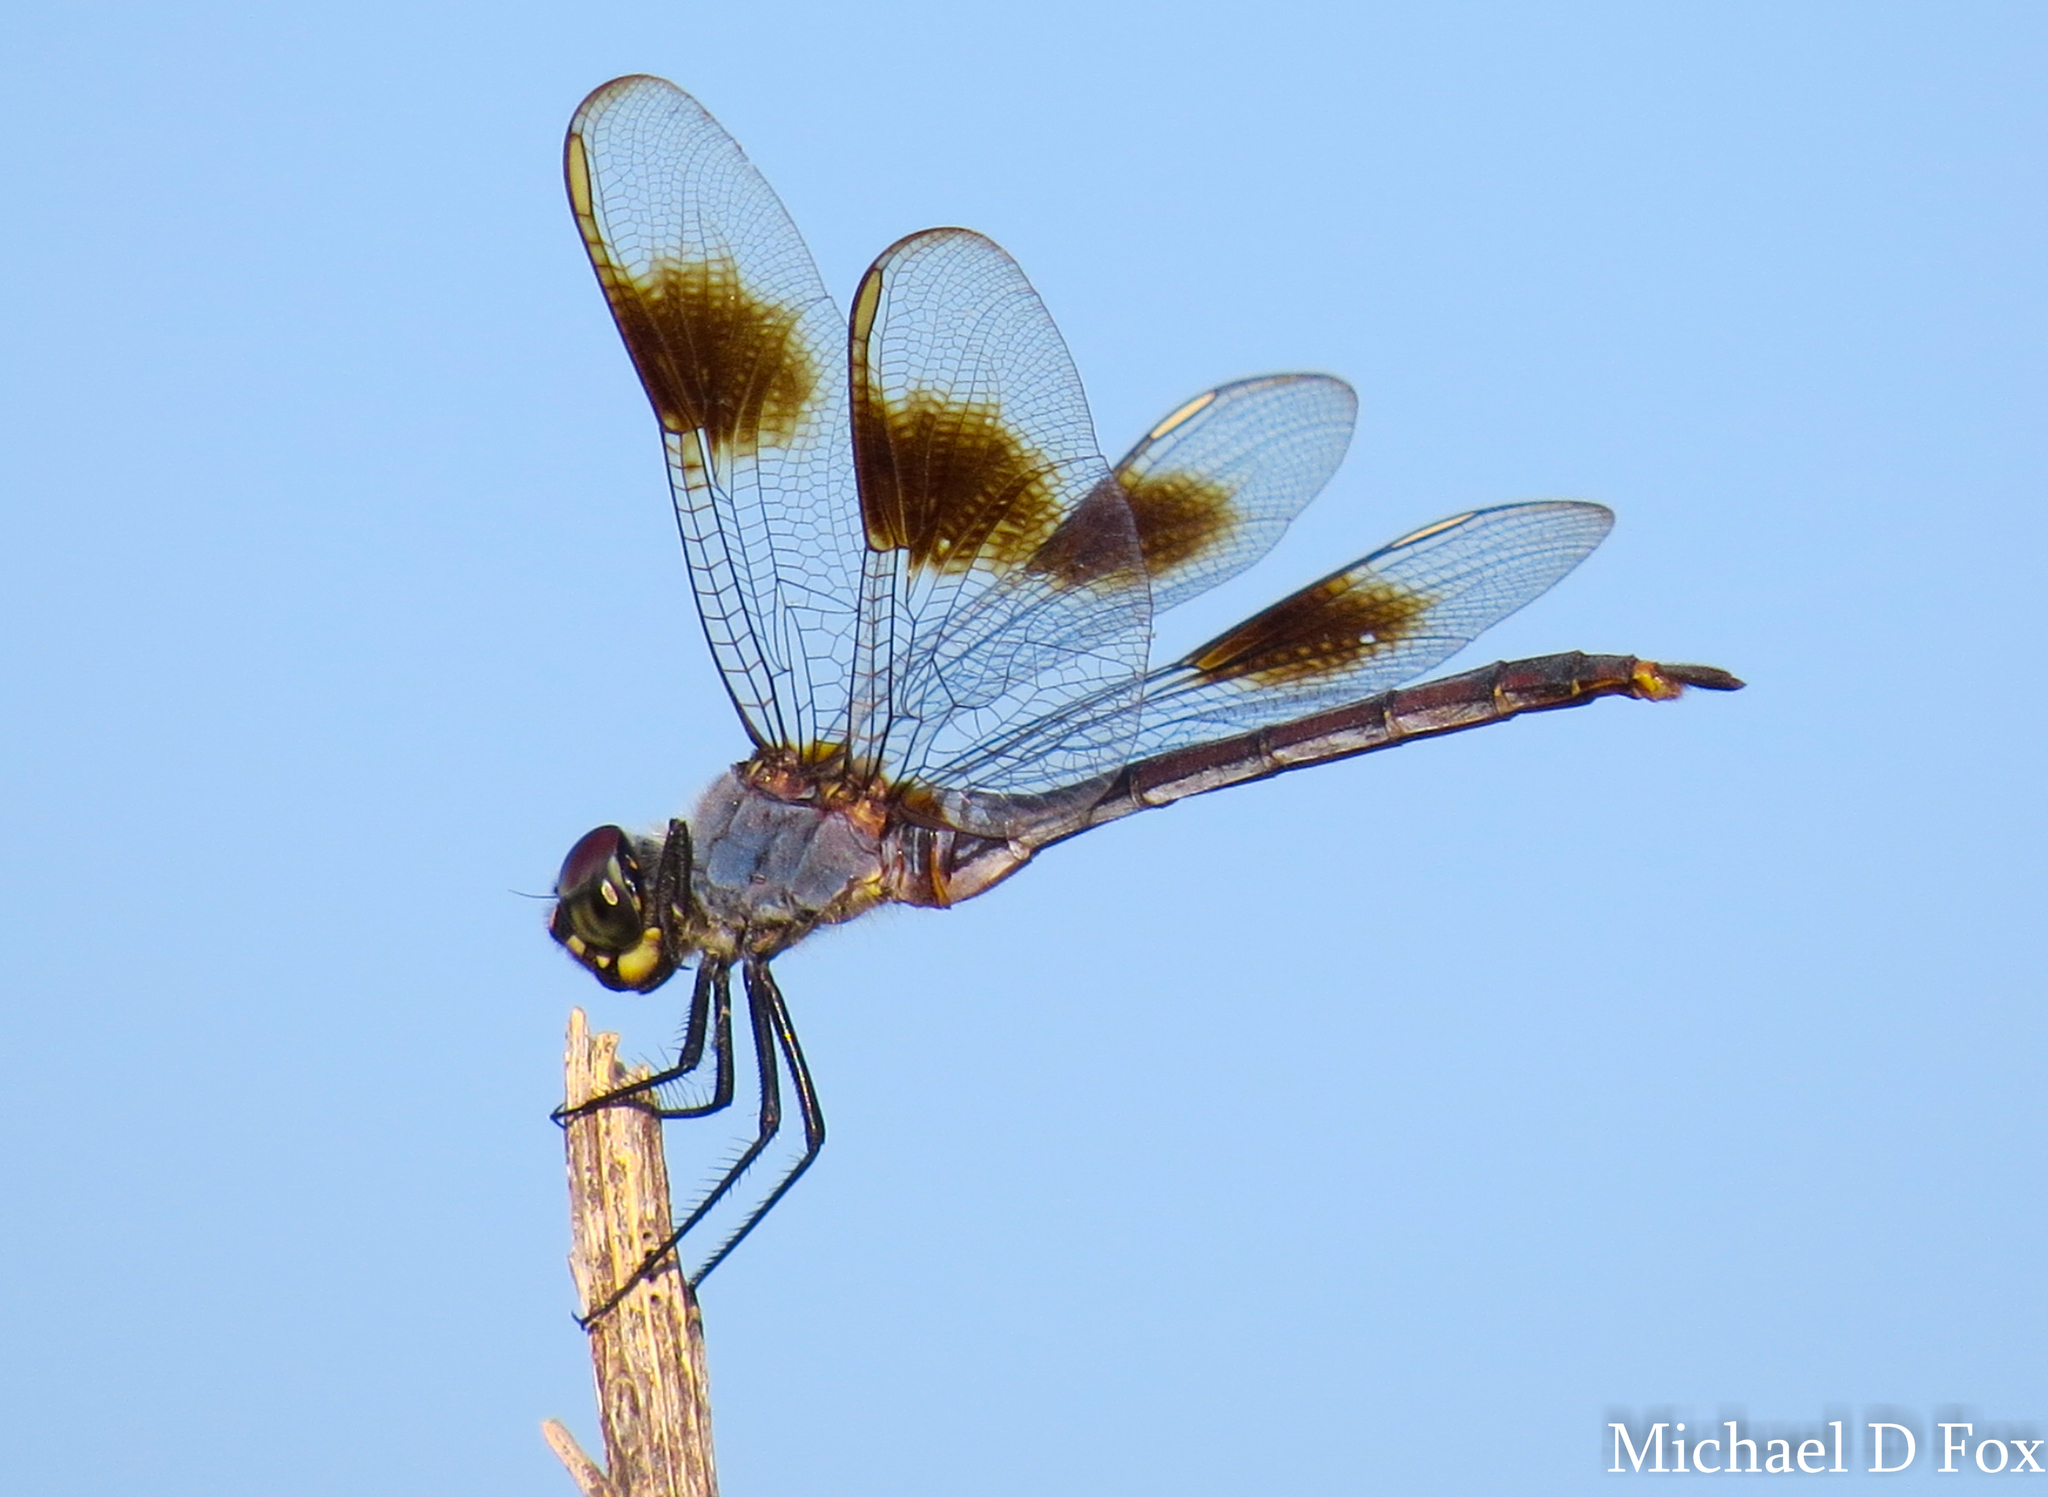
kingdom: Animalia
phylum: Arthropoda
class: Insecta
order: Odonata
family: Libellulidae
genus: Brachymesia
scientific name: Brachymesia gravida
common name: Four-spotted pennant
